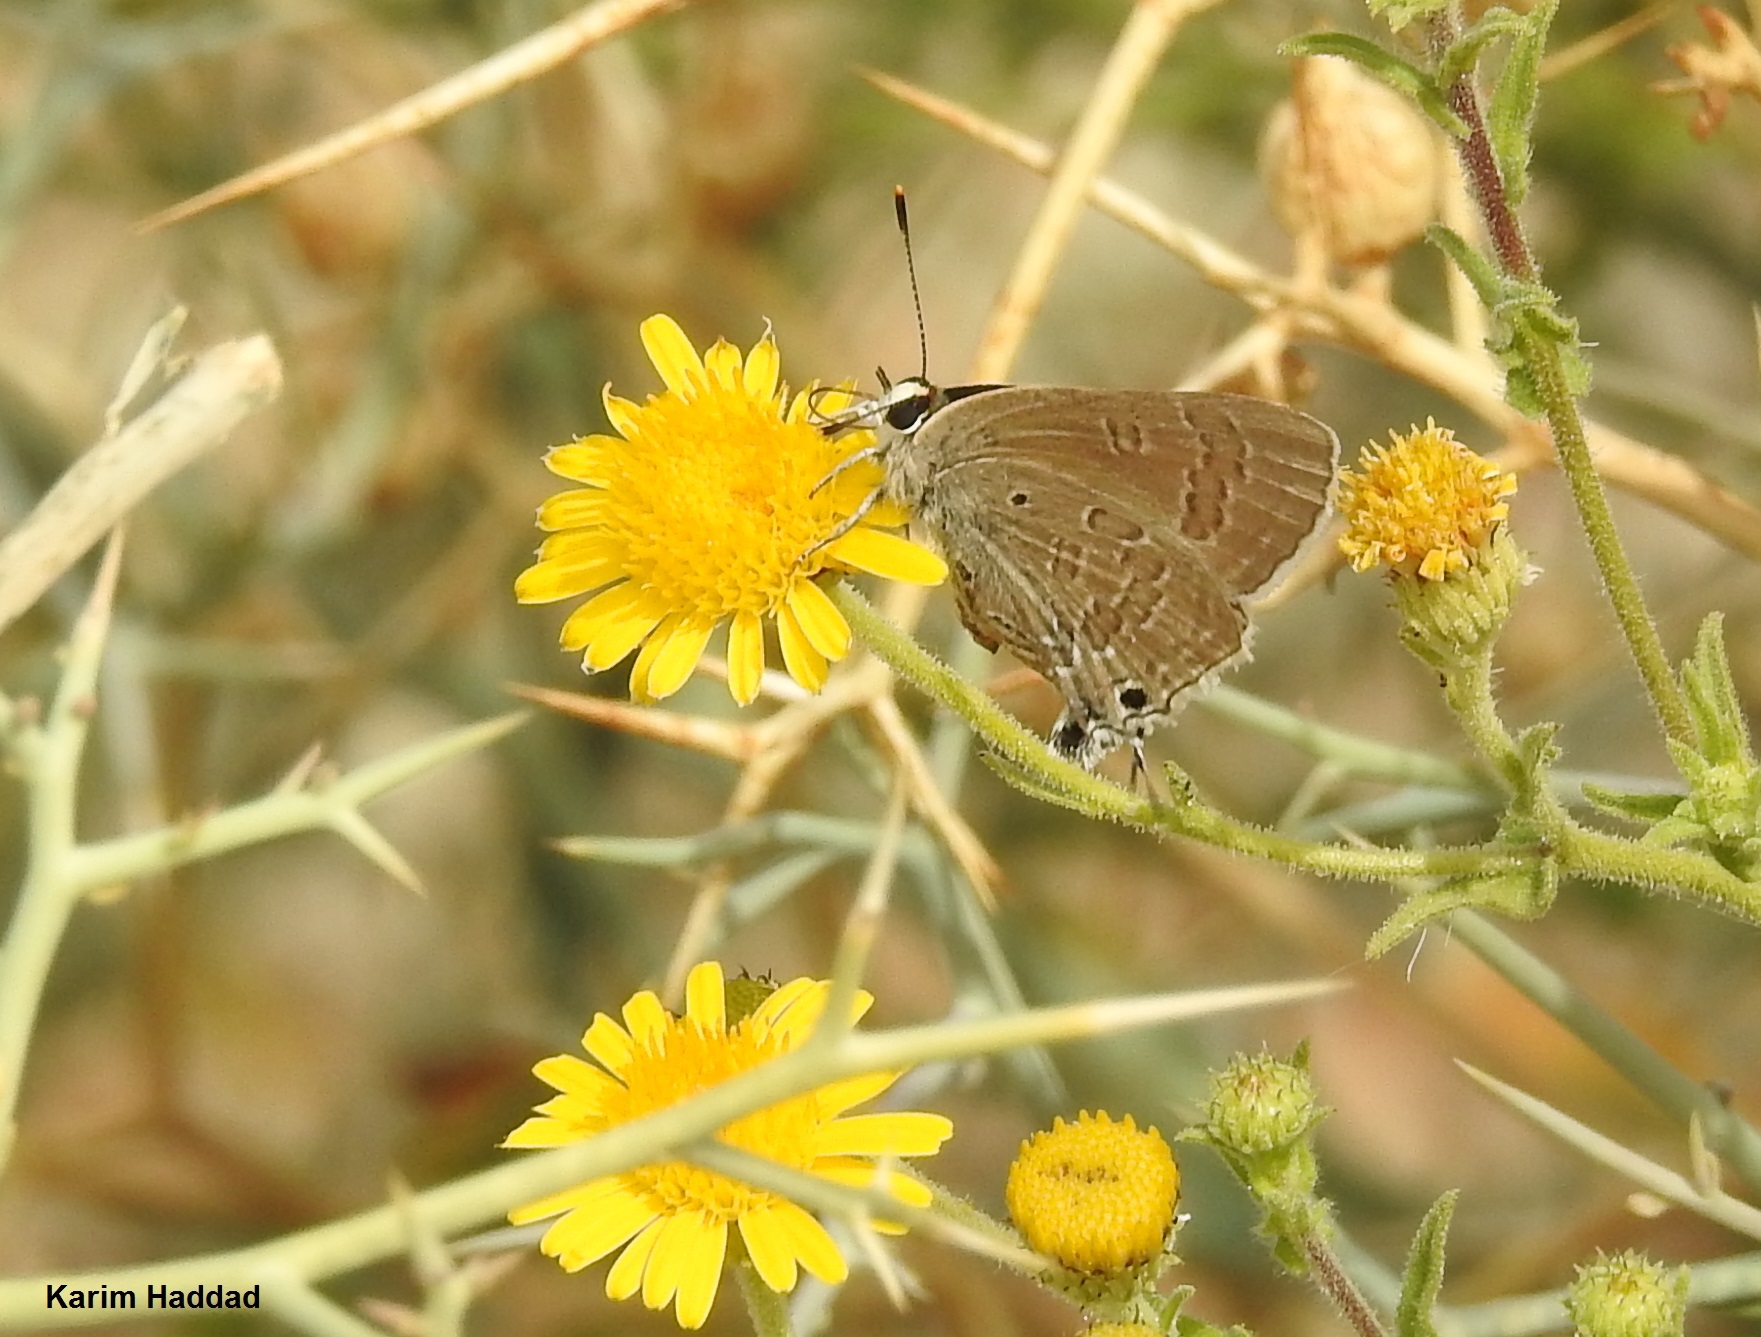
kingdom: Animalia
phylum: Arthropoda
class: Insecta
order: Lepidoptera
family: Lycaenidae
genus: Deudorix
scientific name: Deudorix livia
